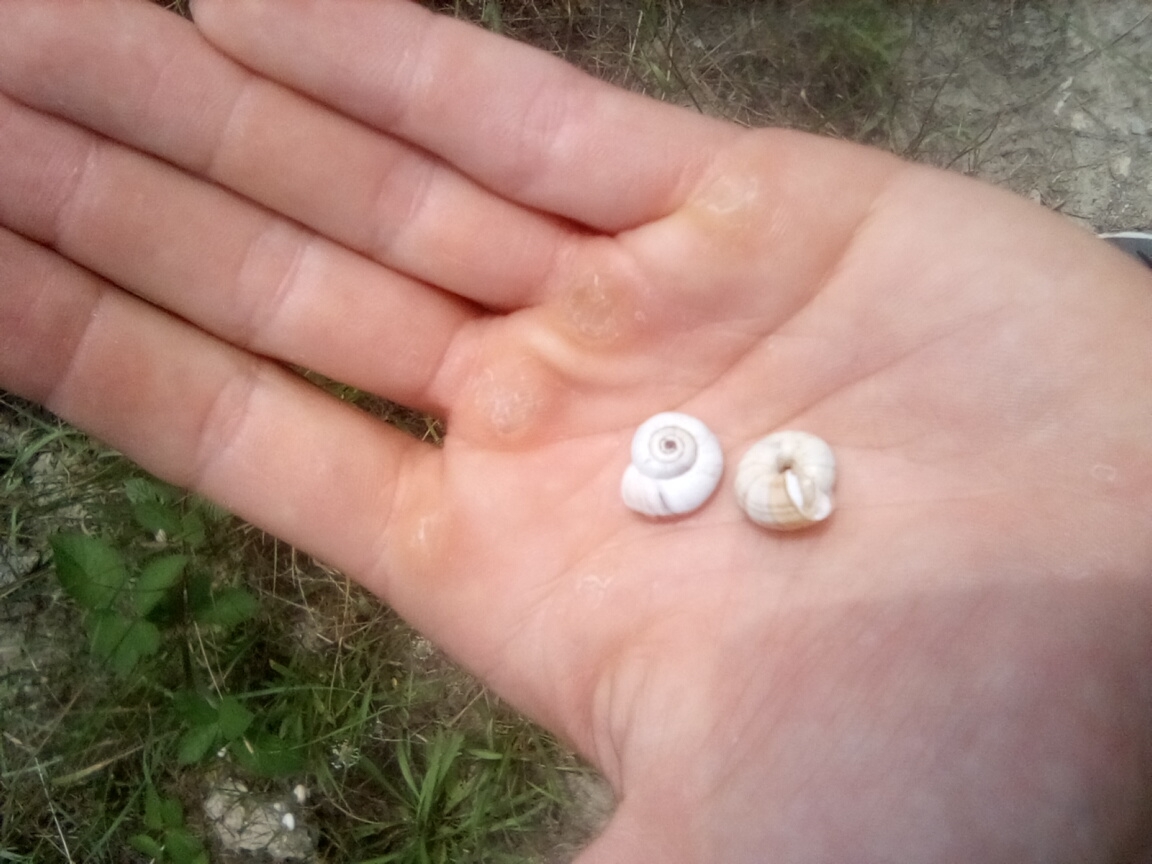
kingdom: Animalia
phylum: Mollusca
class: Gastropoda
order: Stylommatophora
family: Geomitridae
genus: Xeropicta
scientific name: Xeropicta krynickii
